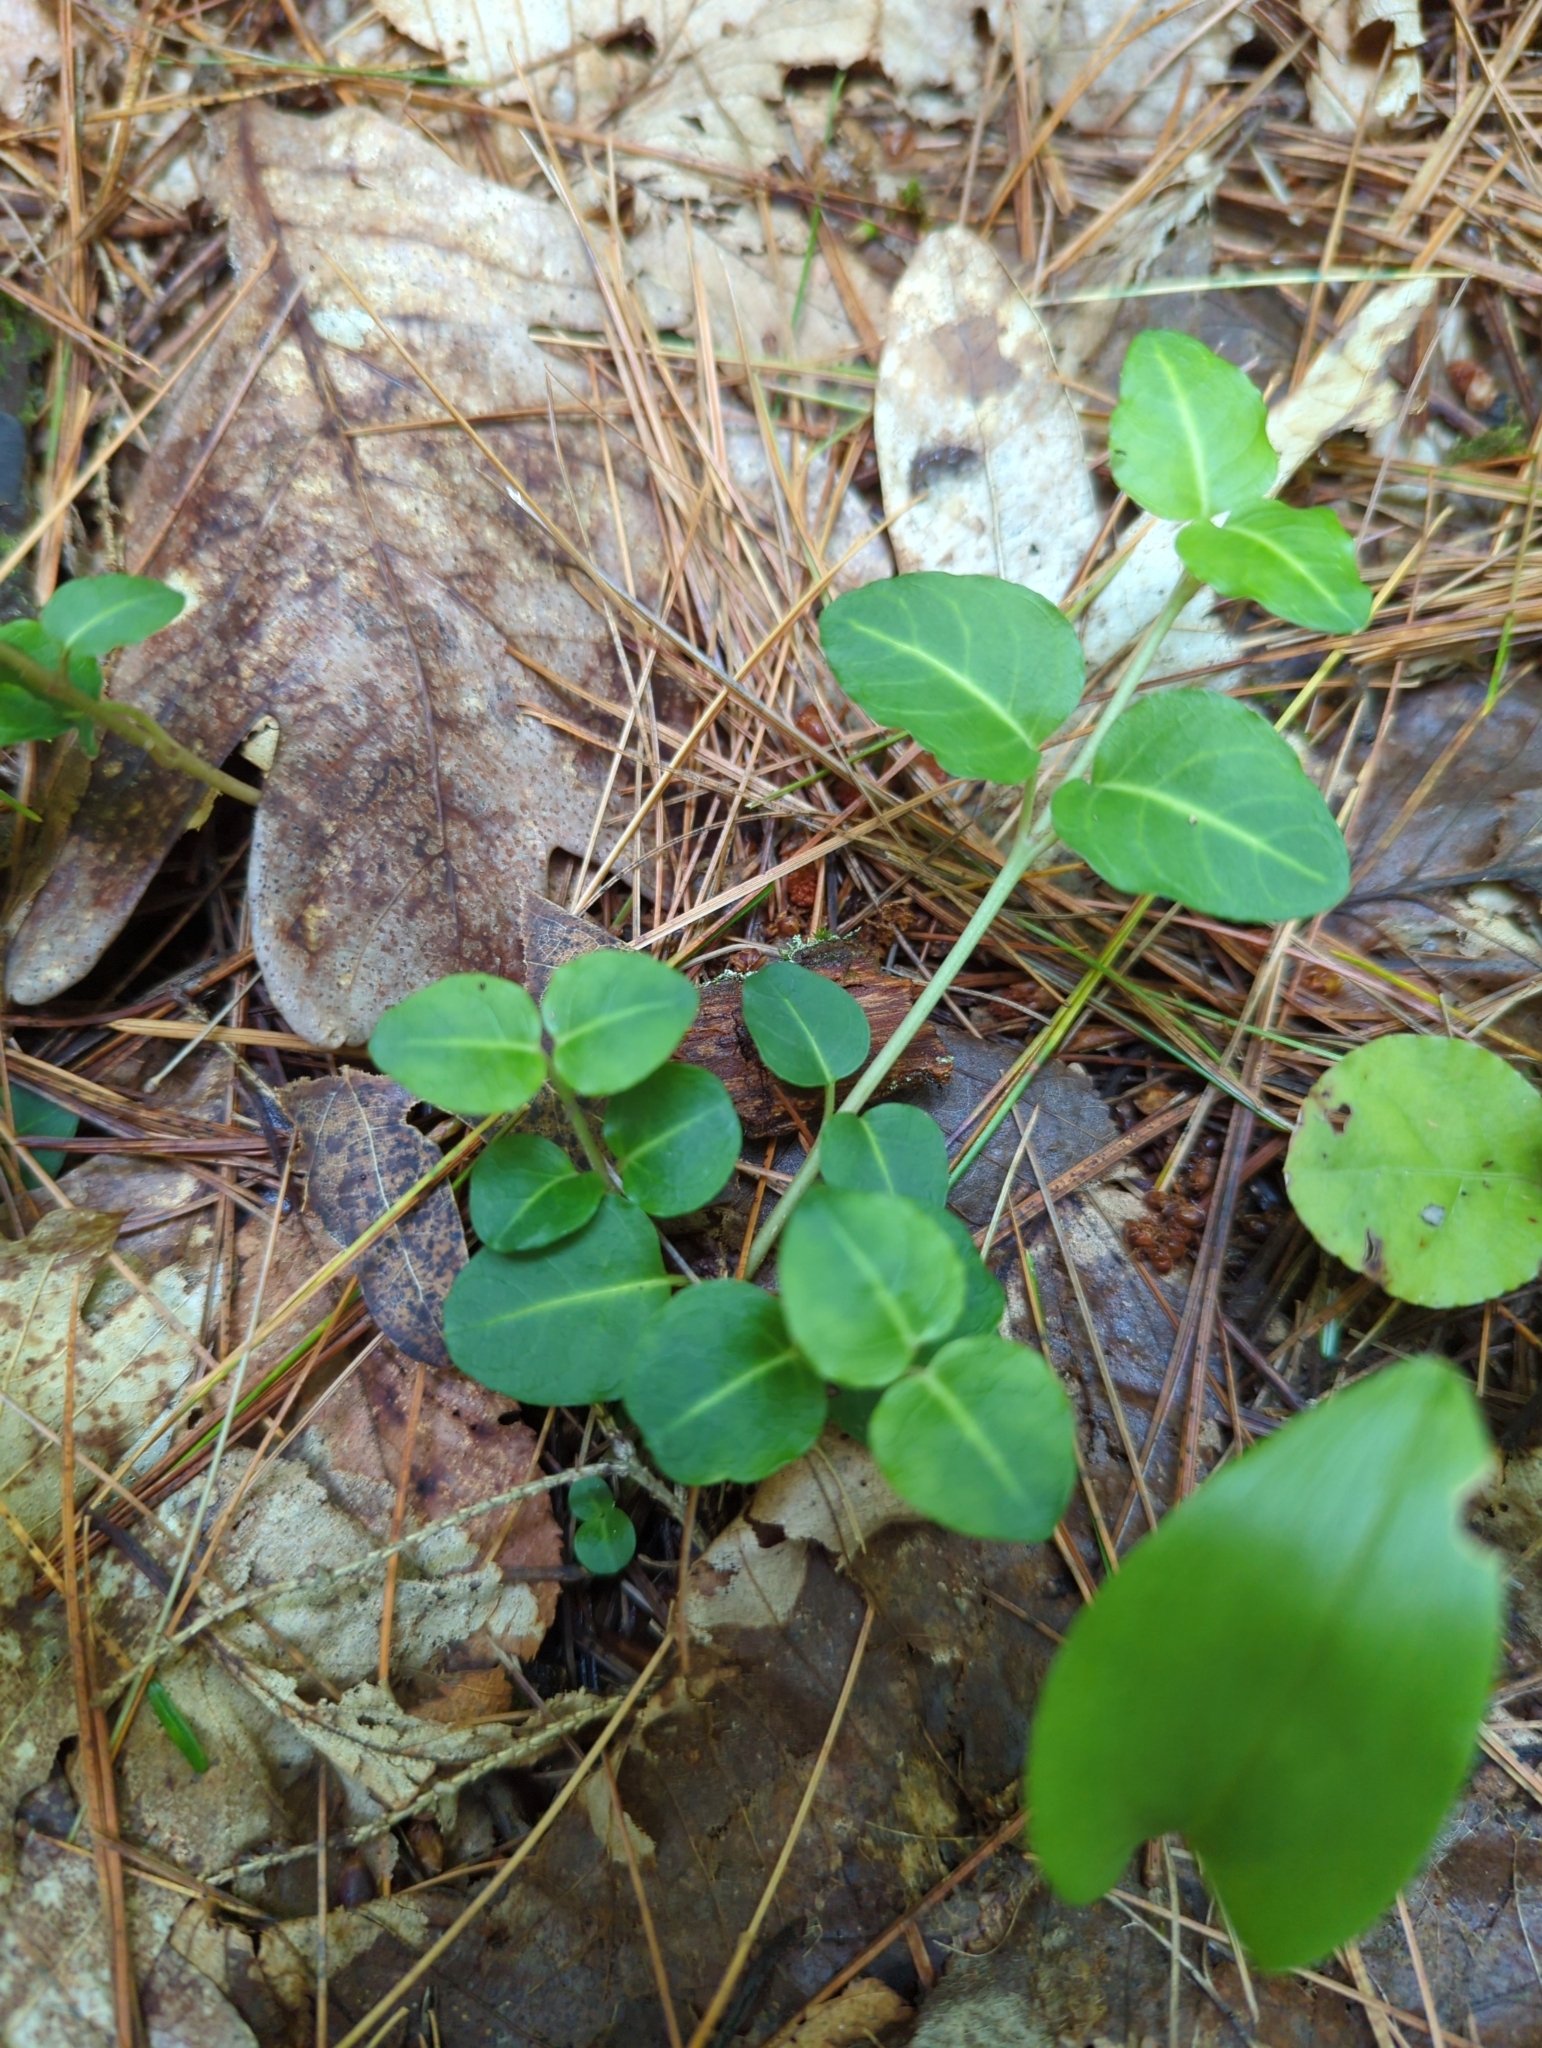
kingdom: Plantae
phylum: Tracheophyta
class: Magnoliopsida
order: Gentianales
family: Rubiaceae
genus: Mitchella
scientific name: Mitchella repens
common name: Partridge-berry
